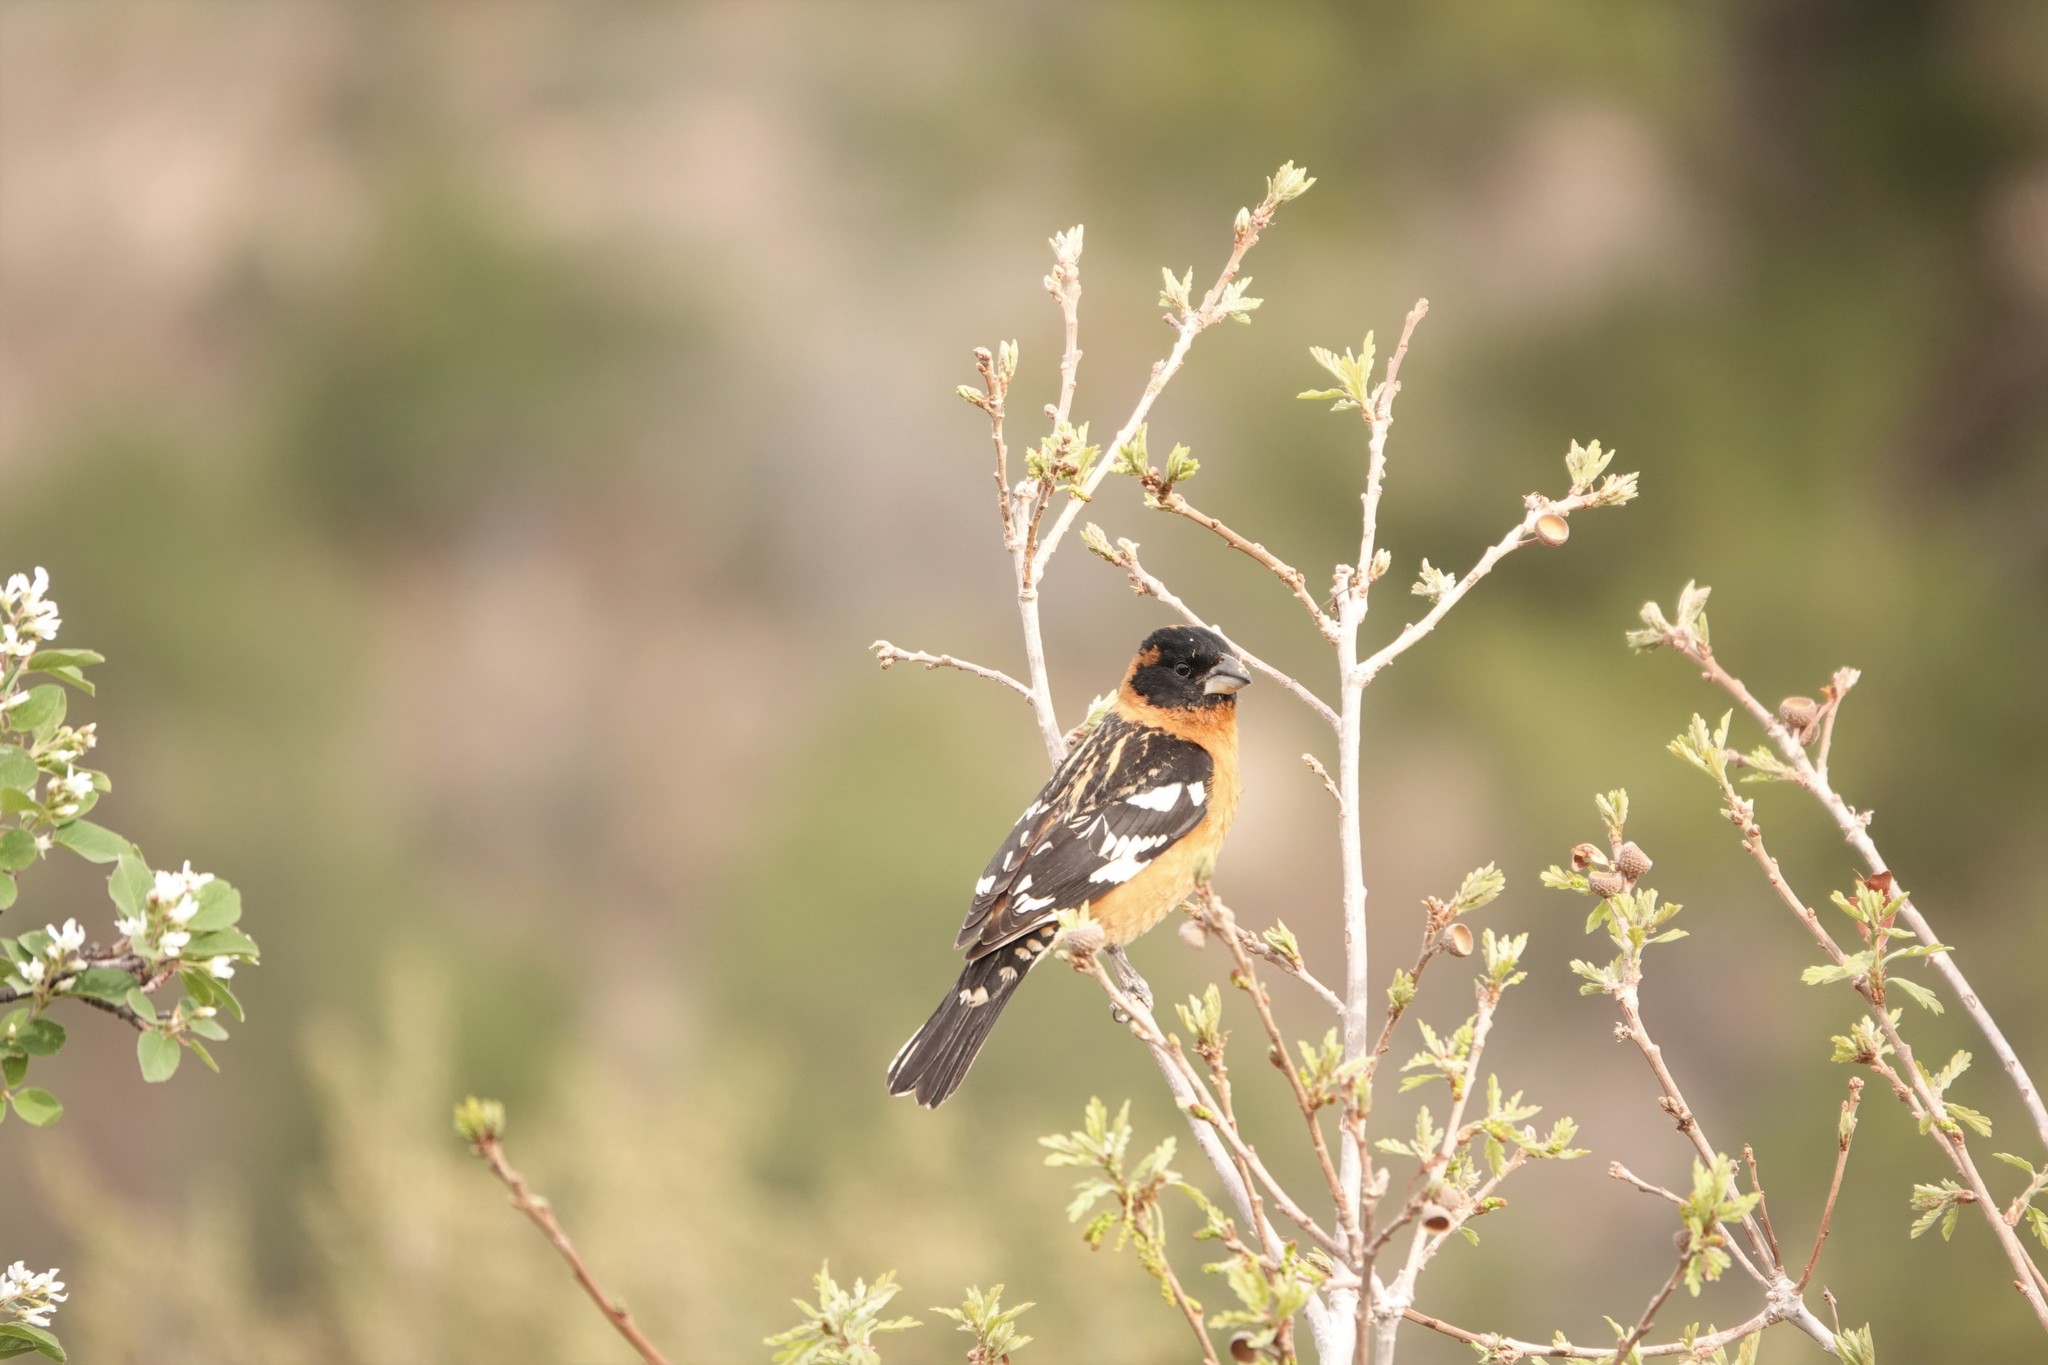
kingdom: Animalia
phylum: Chordata
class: Aves
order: Passeriformes
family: Cardinalidae
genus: Pheucticus
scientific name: Pheucticus melanocephalus
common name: Black-headed grosbeak
